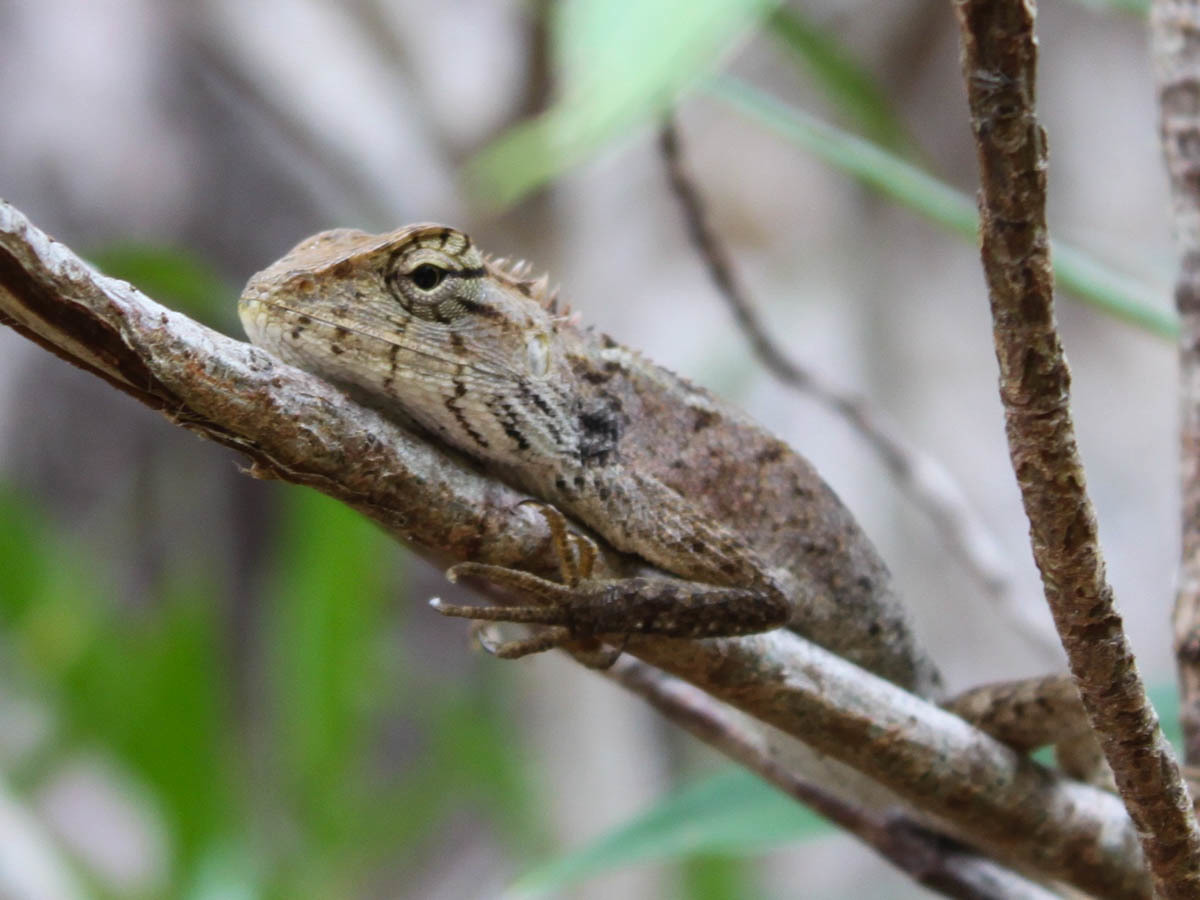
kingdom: Animalia
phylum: Chordata
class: Squamata
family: Agamidae
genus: Calotes
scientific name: Calotes versicolor
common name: Oriental garden lizard
